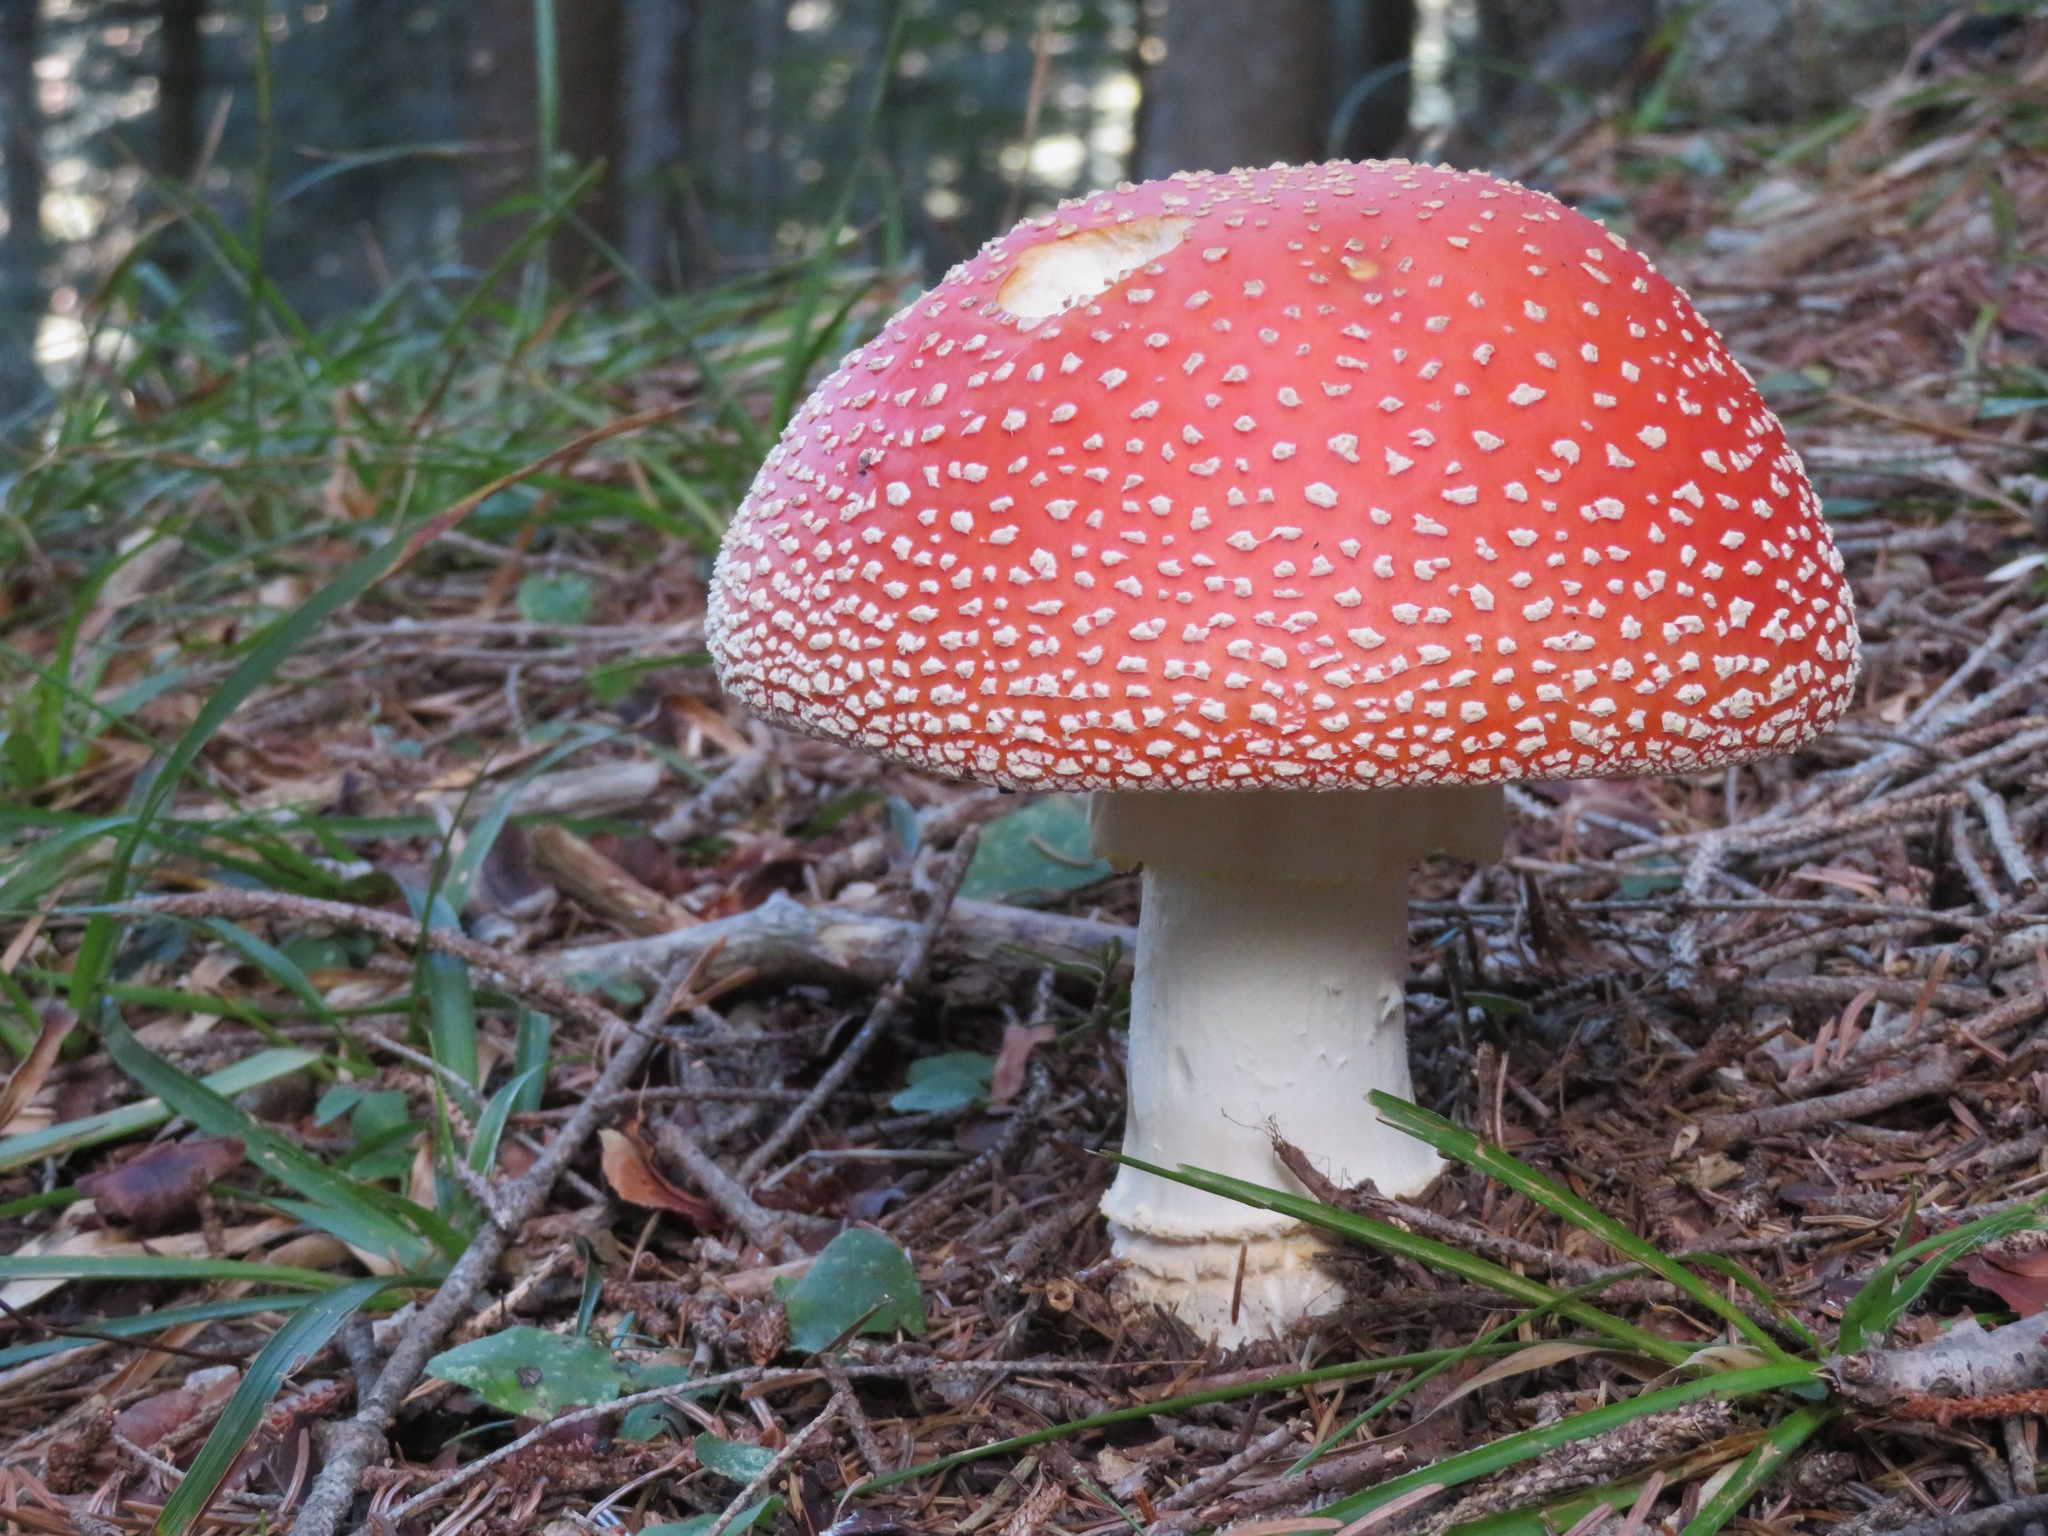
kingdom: Fungi
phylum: Basidiomycota
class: Agaricomycetes
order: Agaricales
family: Amanitaceae
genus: Amanita
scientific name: Amanita muscaria
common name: Fly agaric
